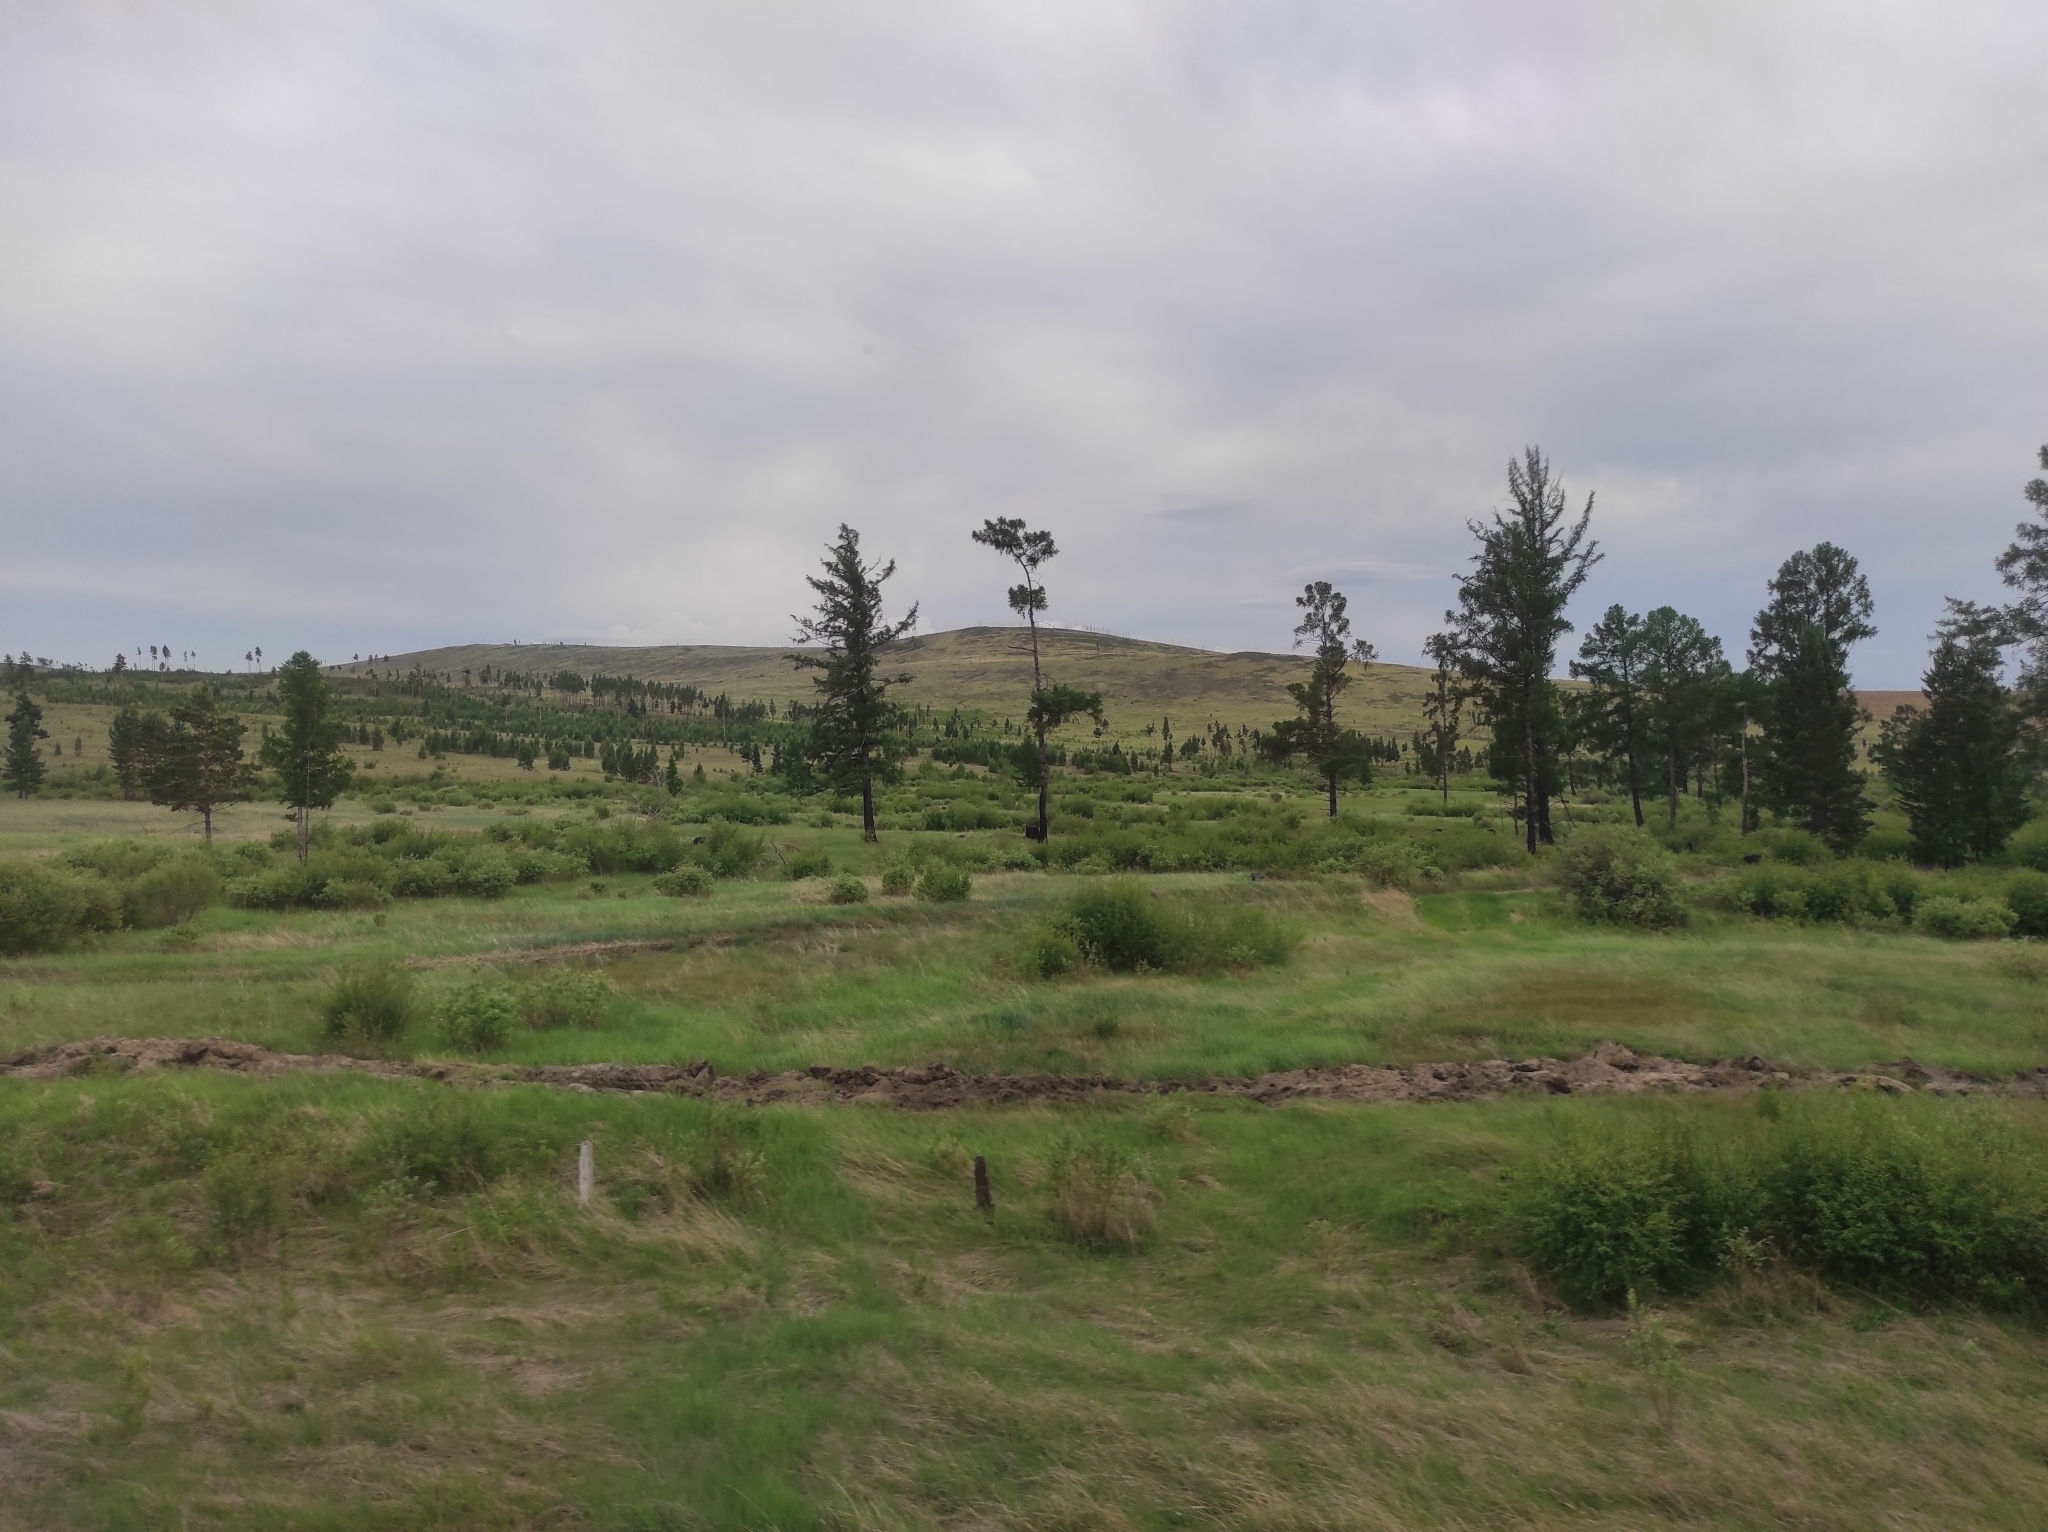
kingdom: Plantae
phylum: Tracheophyta
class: Pinopsida
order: Pinales
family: Pinaceae
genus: Pinus
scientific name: Pinus sylvestris
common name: Scots pine
